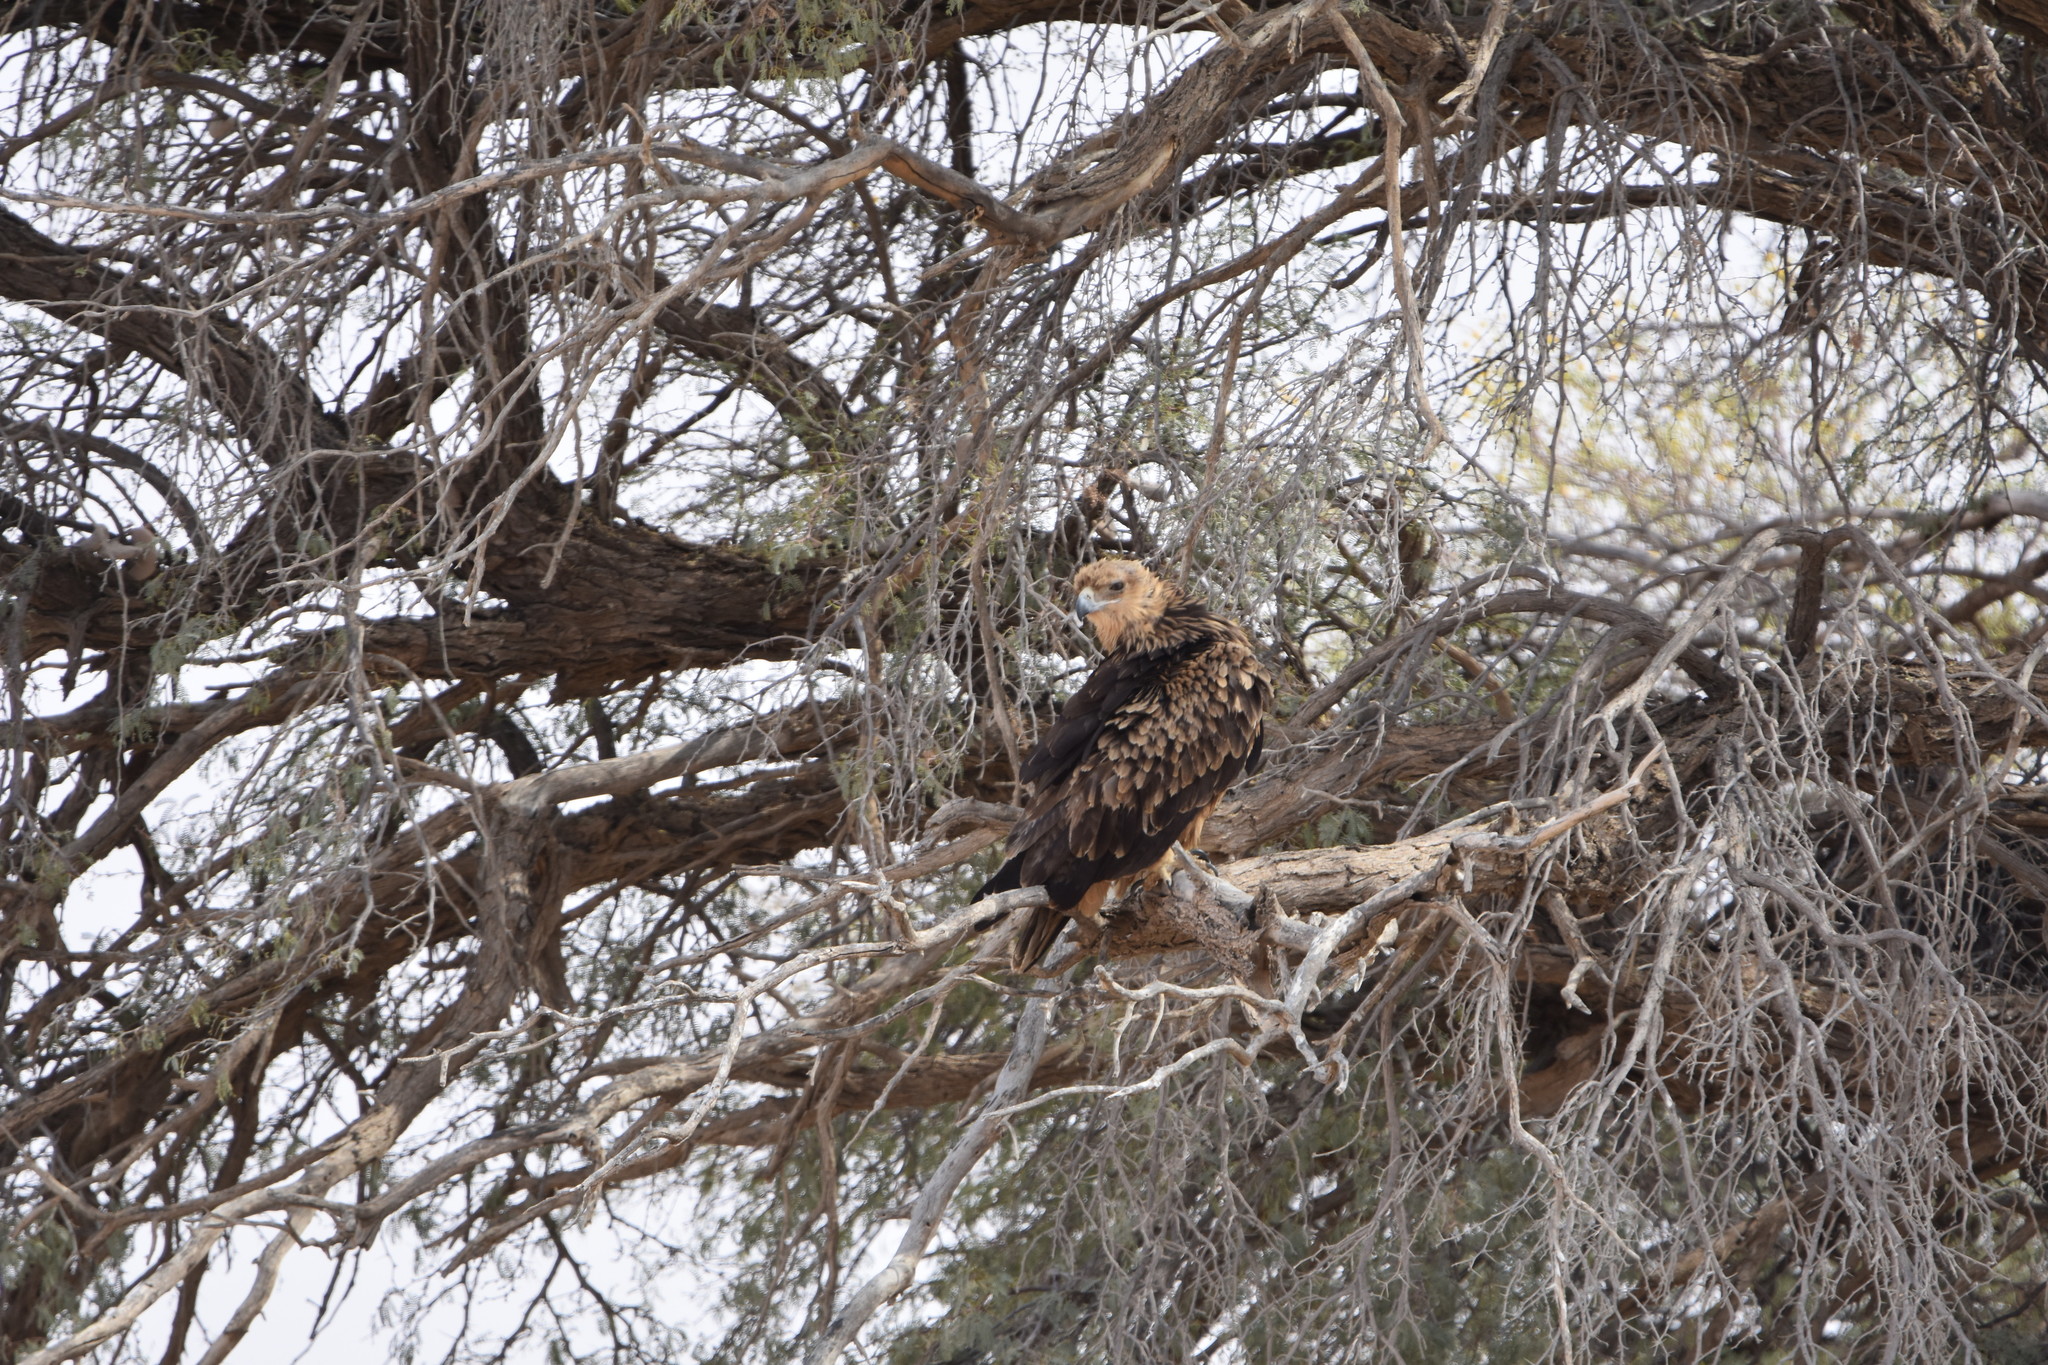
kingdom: Animalia
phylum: Chordata
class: Aves
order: Accipitriformes
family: Accipitridae
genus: Aquila
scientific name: Aquila rapax
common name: Tawny eagle
